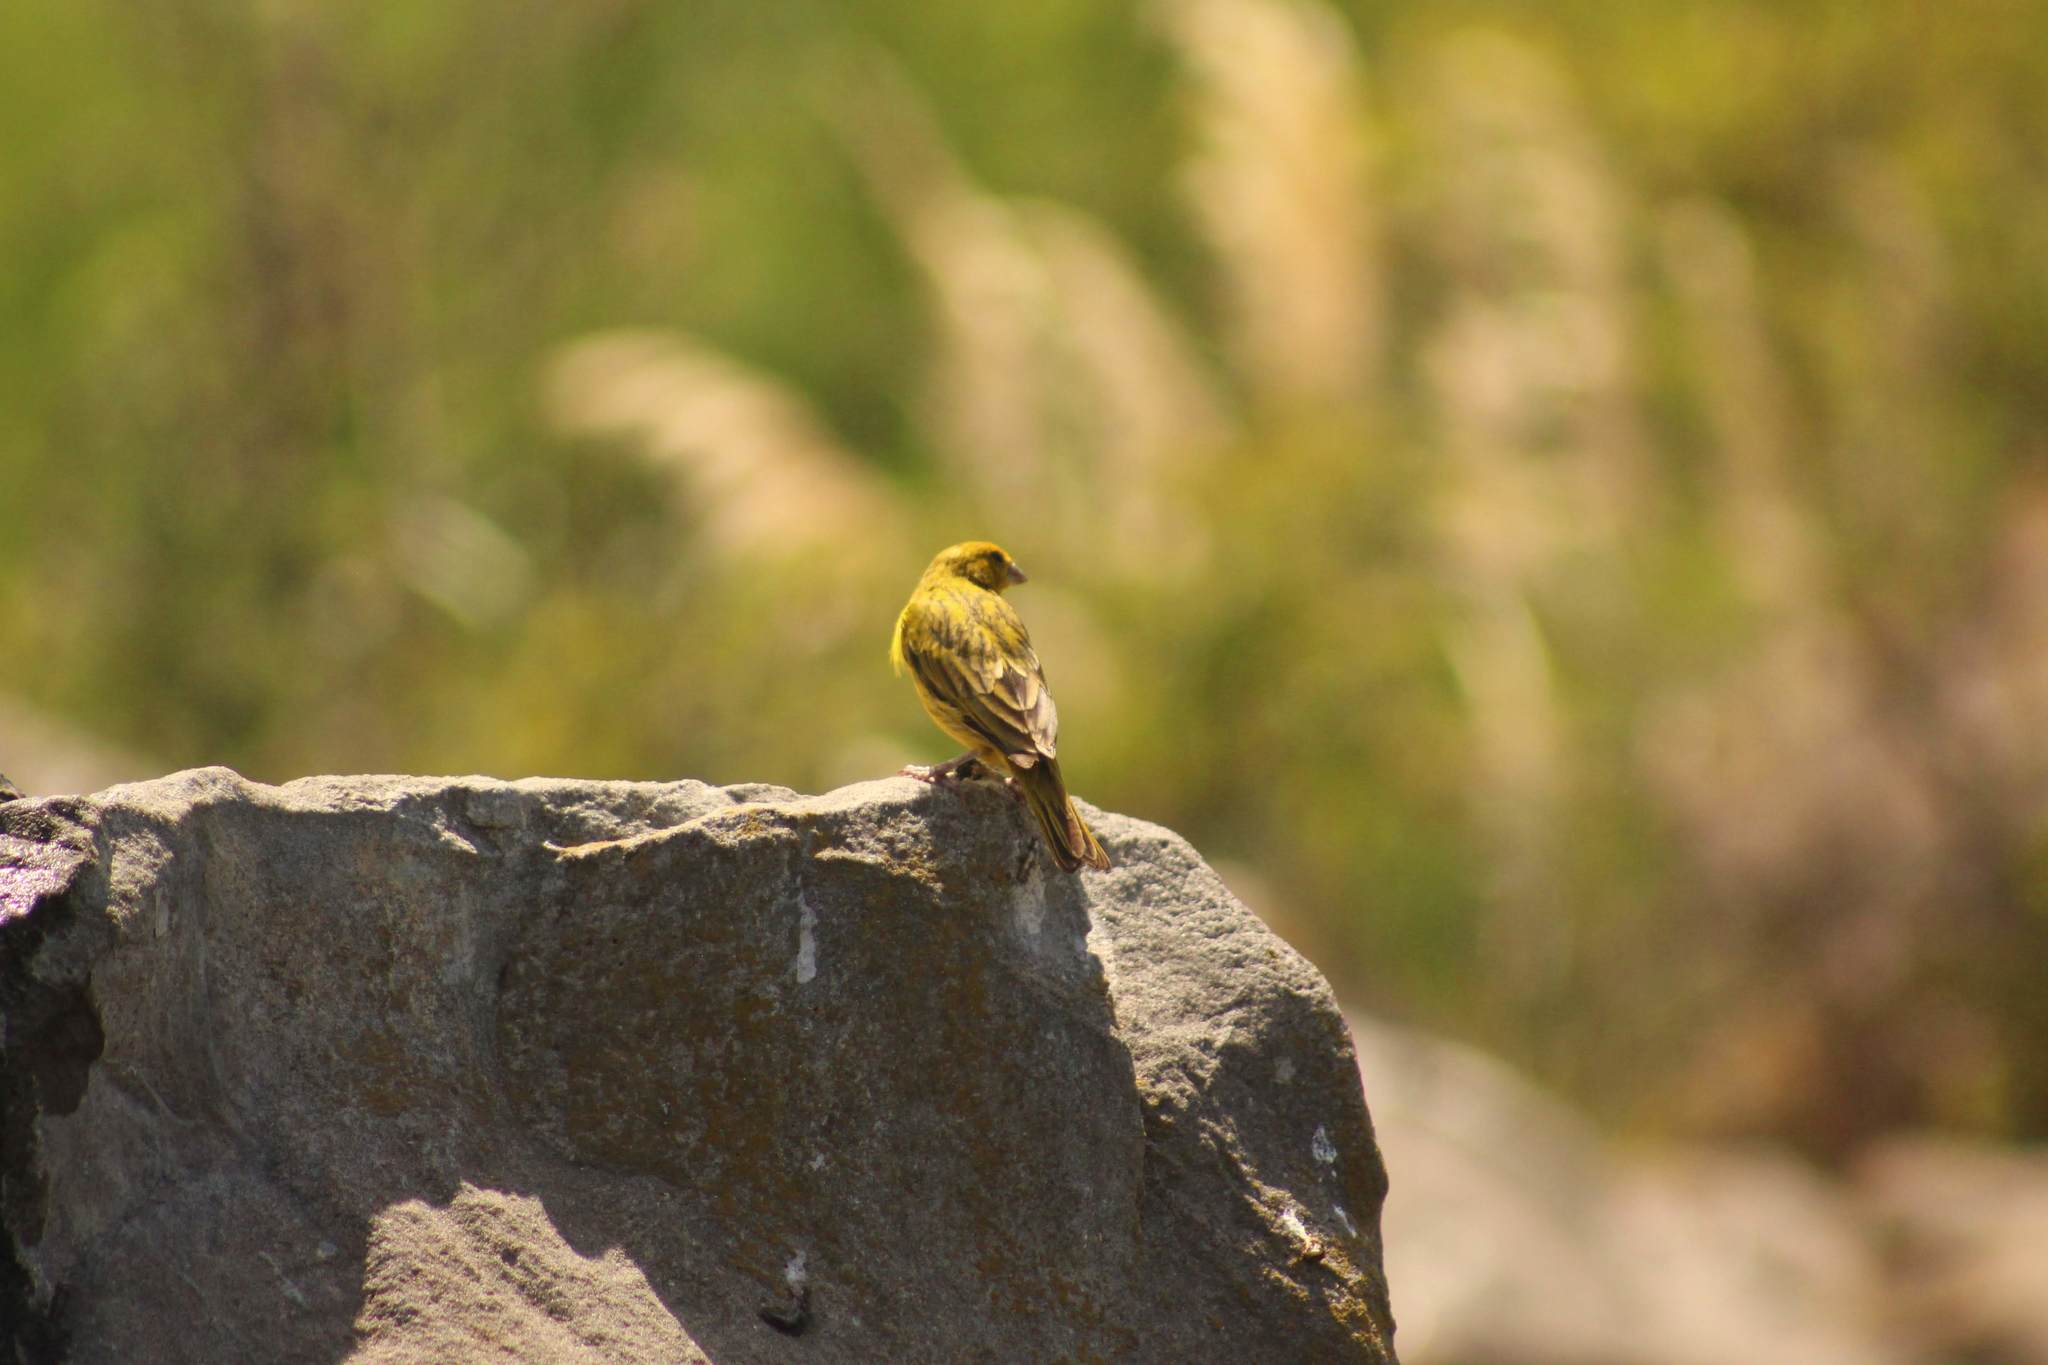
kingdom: Animalia
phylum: Chordata
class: Aves
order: Passeriformes
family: Thraupidae
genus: Sicalis
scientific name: Sicalis flaveola
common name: Saffron finch
